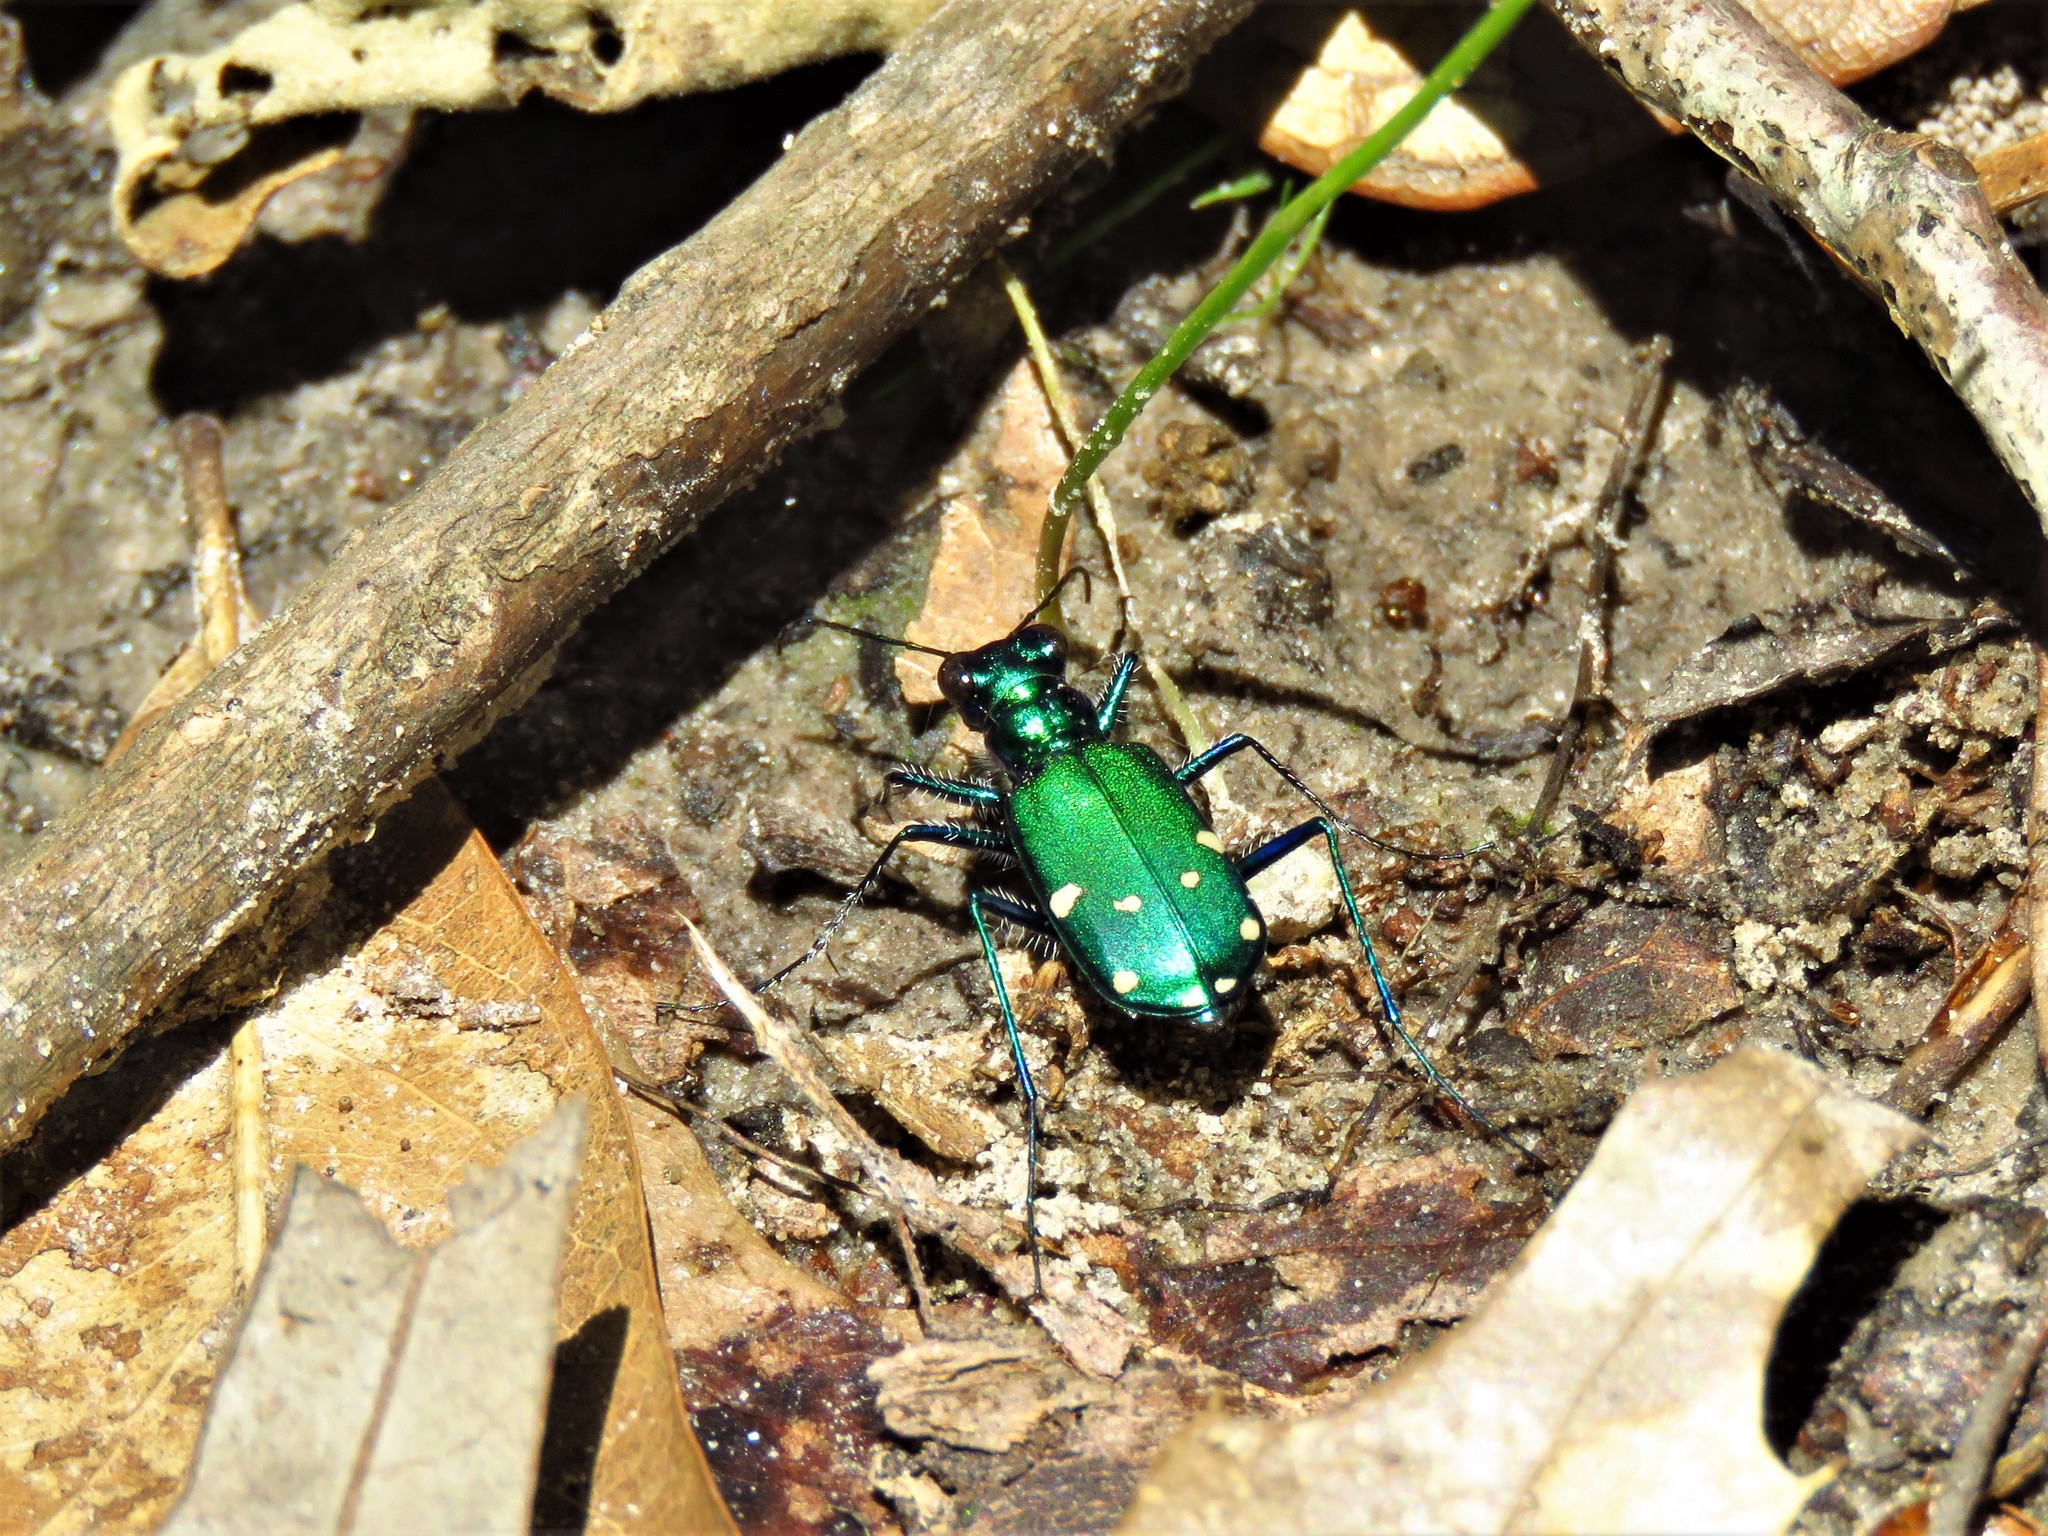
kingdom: Animalia
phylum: Arthropoda
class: Insecta
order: Coleoptera
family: Carabidae
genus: Cicindela
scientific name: Cicindela sexguttata
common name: Six-spotted tiger beetle
